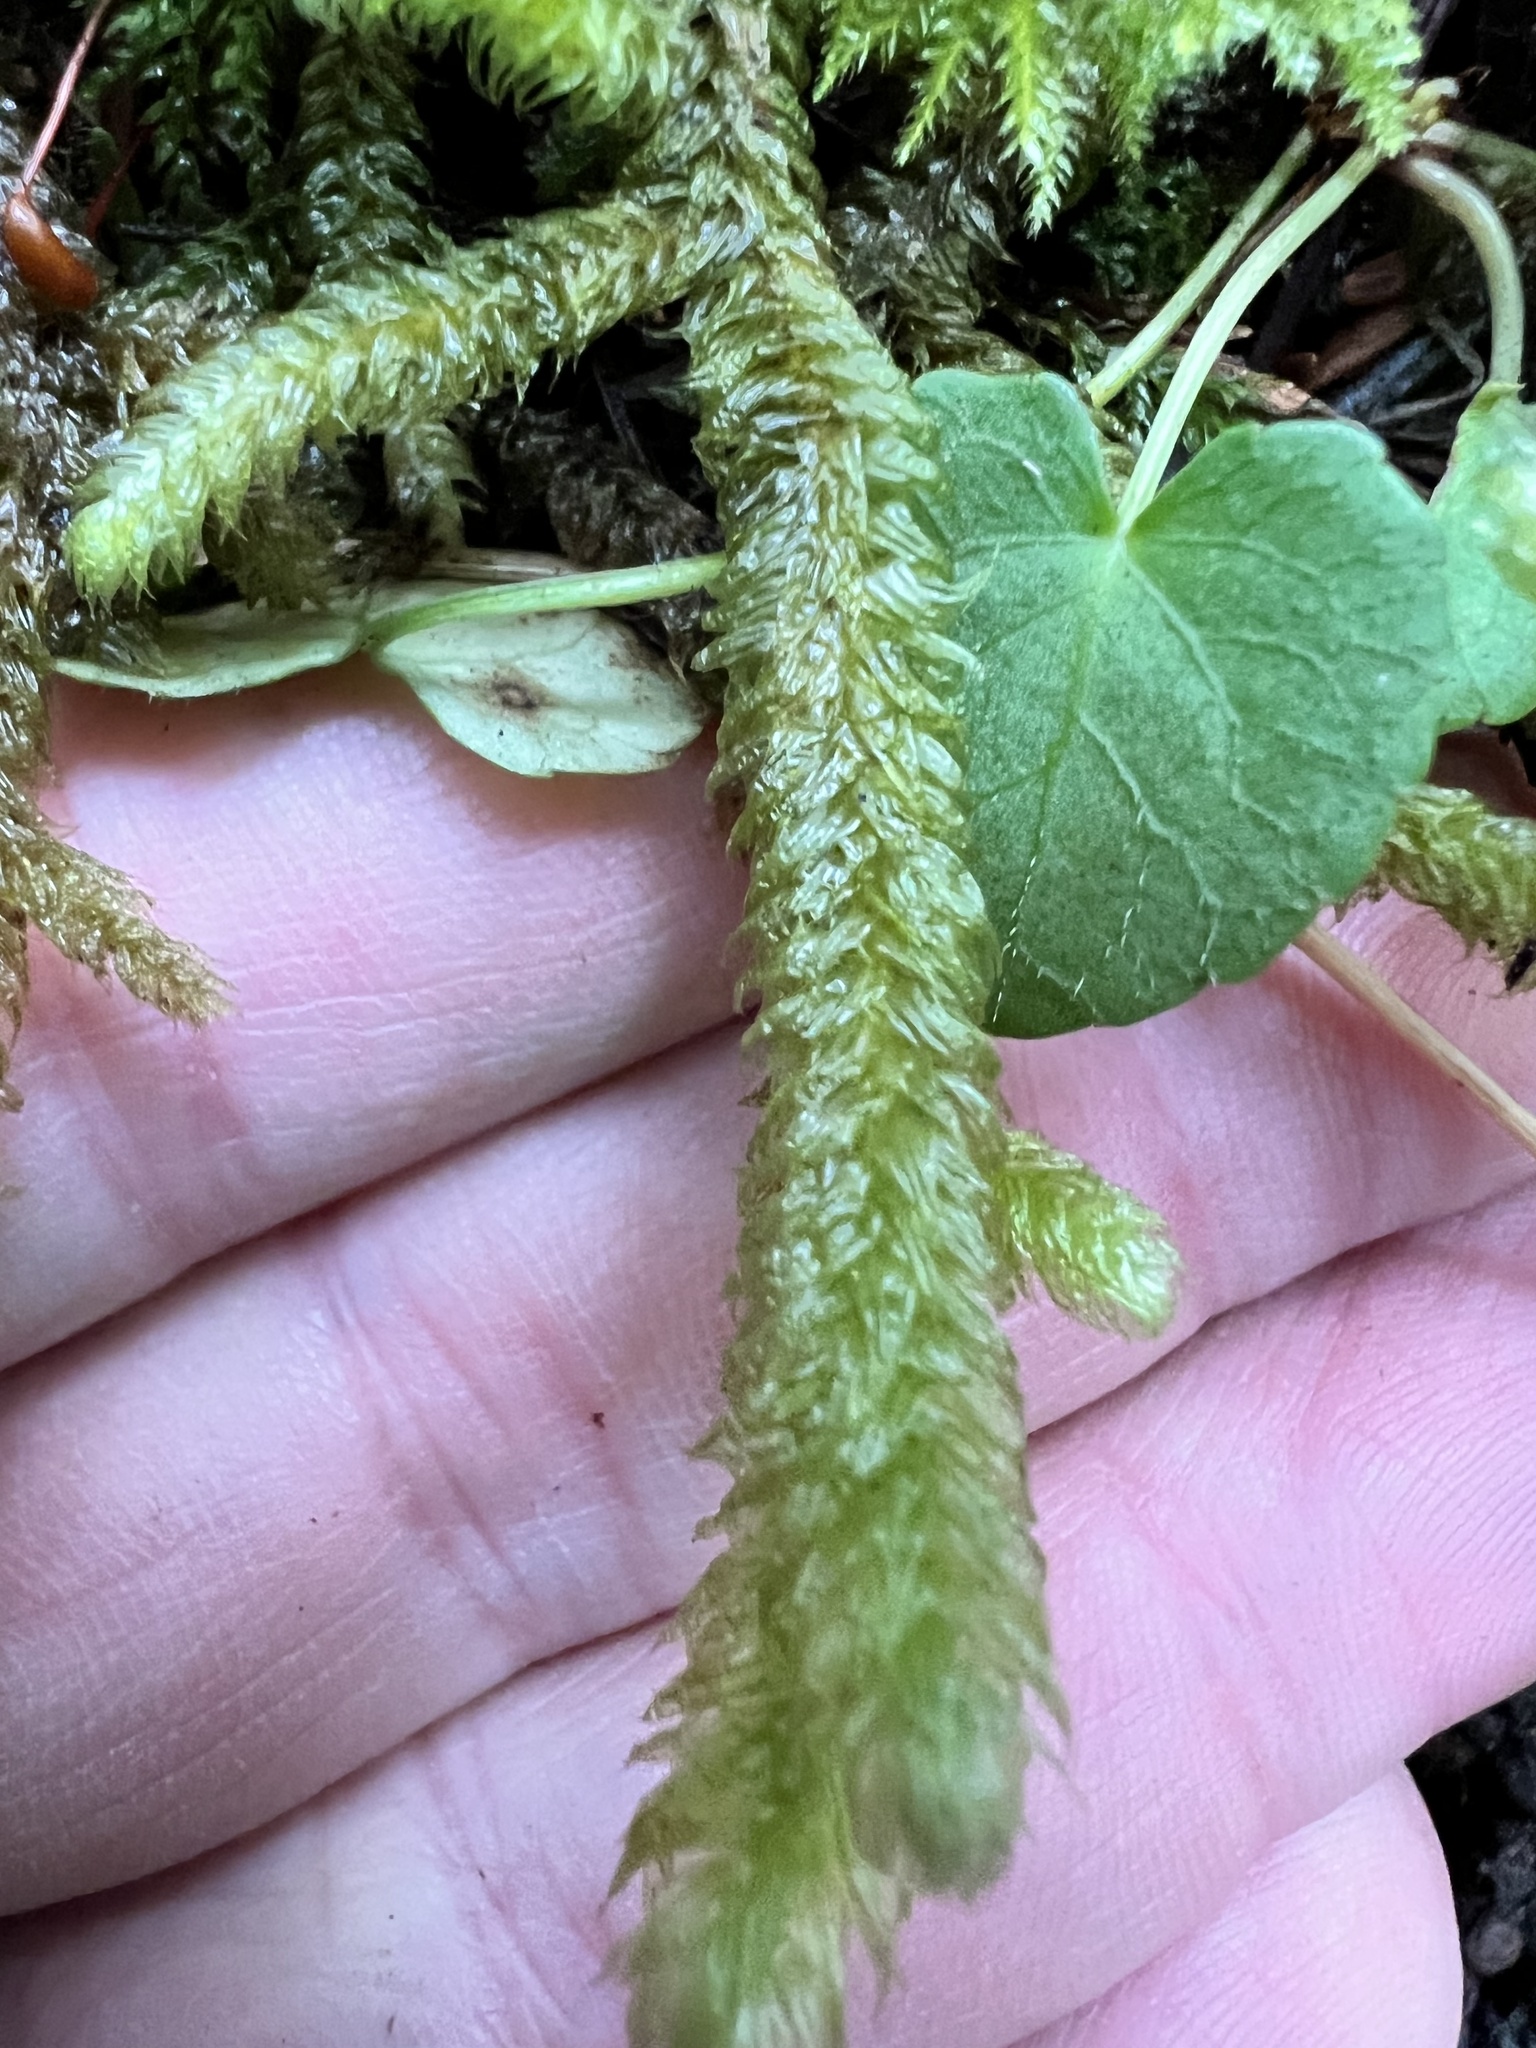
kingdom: Plantae
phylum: Bryophyta
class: Bryopsida
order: Hypnales
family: Hylocomiaceae
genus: Rhytidiopsis
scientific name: Rhytidiopsis robusta
